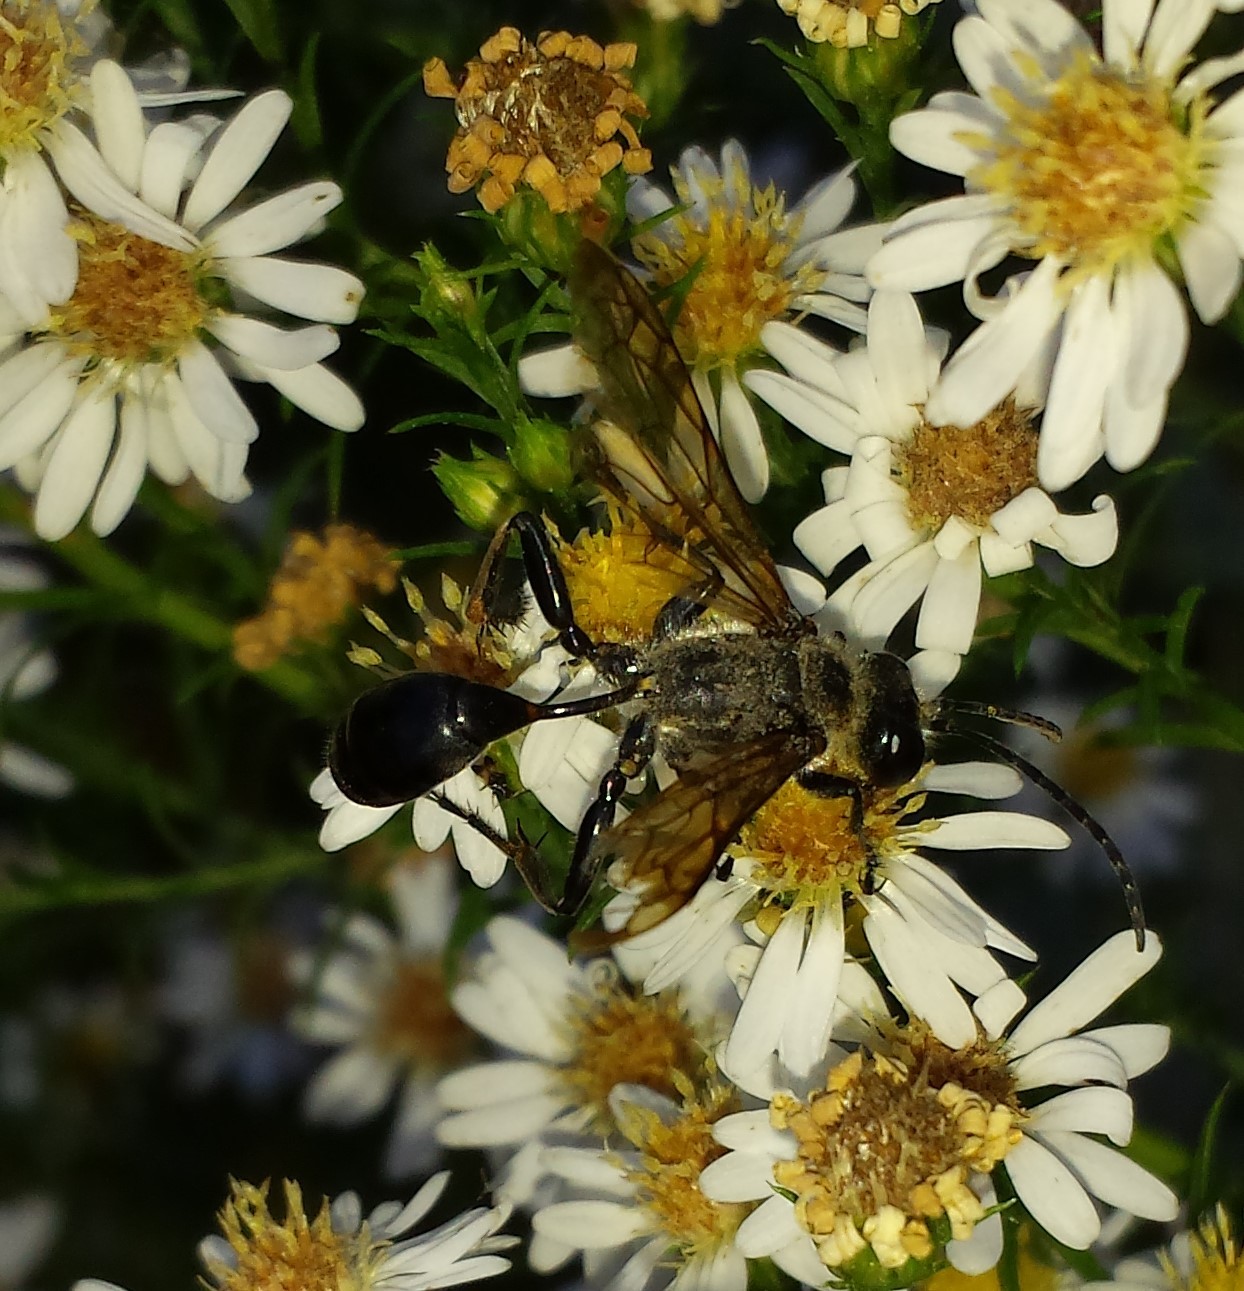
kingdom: Animalia
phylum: Arthropoda
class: Insecta
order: Hymenoptera
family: Sphecidae
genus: Isodontia
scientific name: Isodontia mexicana
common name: Mud dauber
